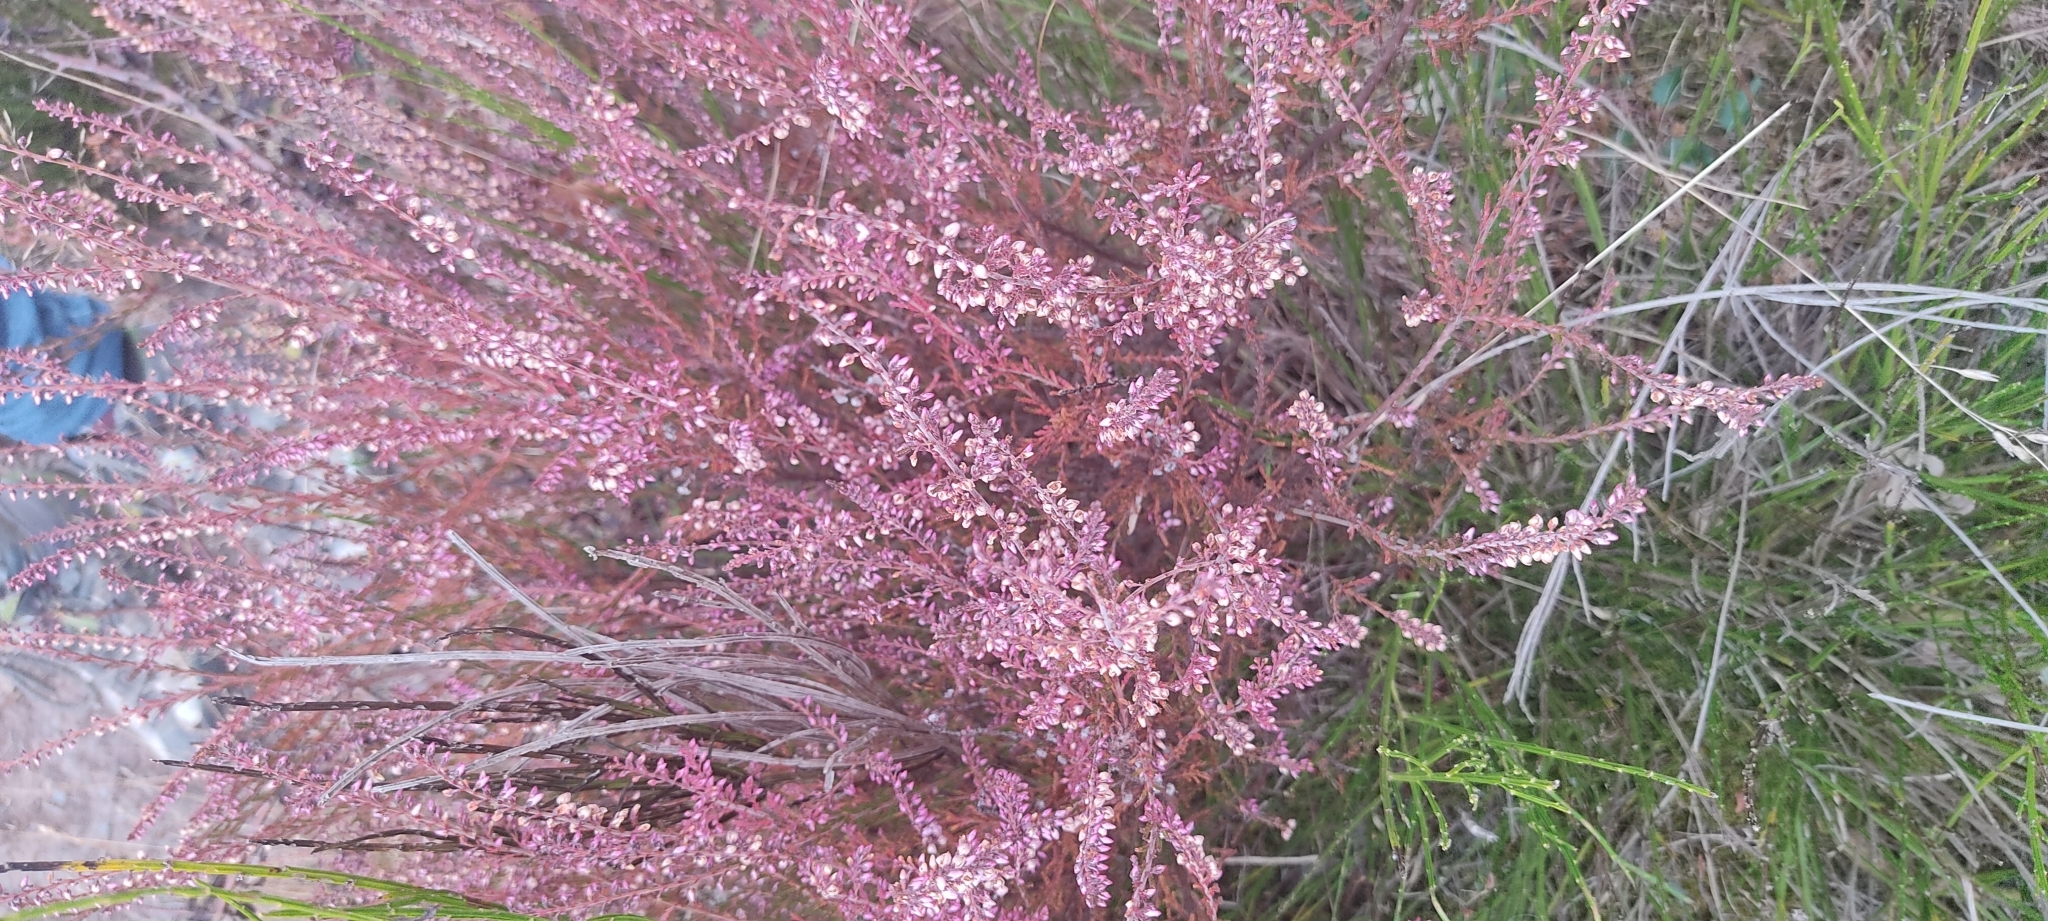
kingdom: Plantae
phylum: Tracheophyta
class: Magnoliopsida
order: Ericales
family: Ericaceae
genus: Calluna
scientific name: Calluna vulgaris
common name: Heather
